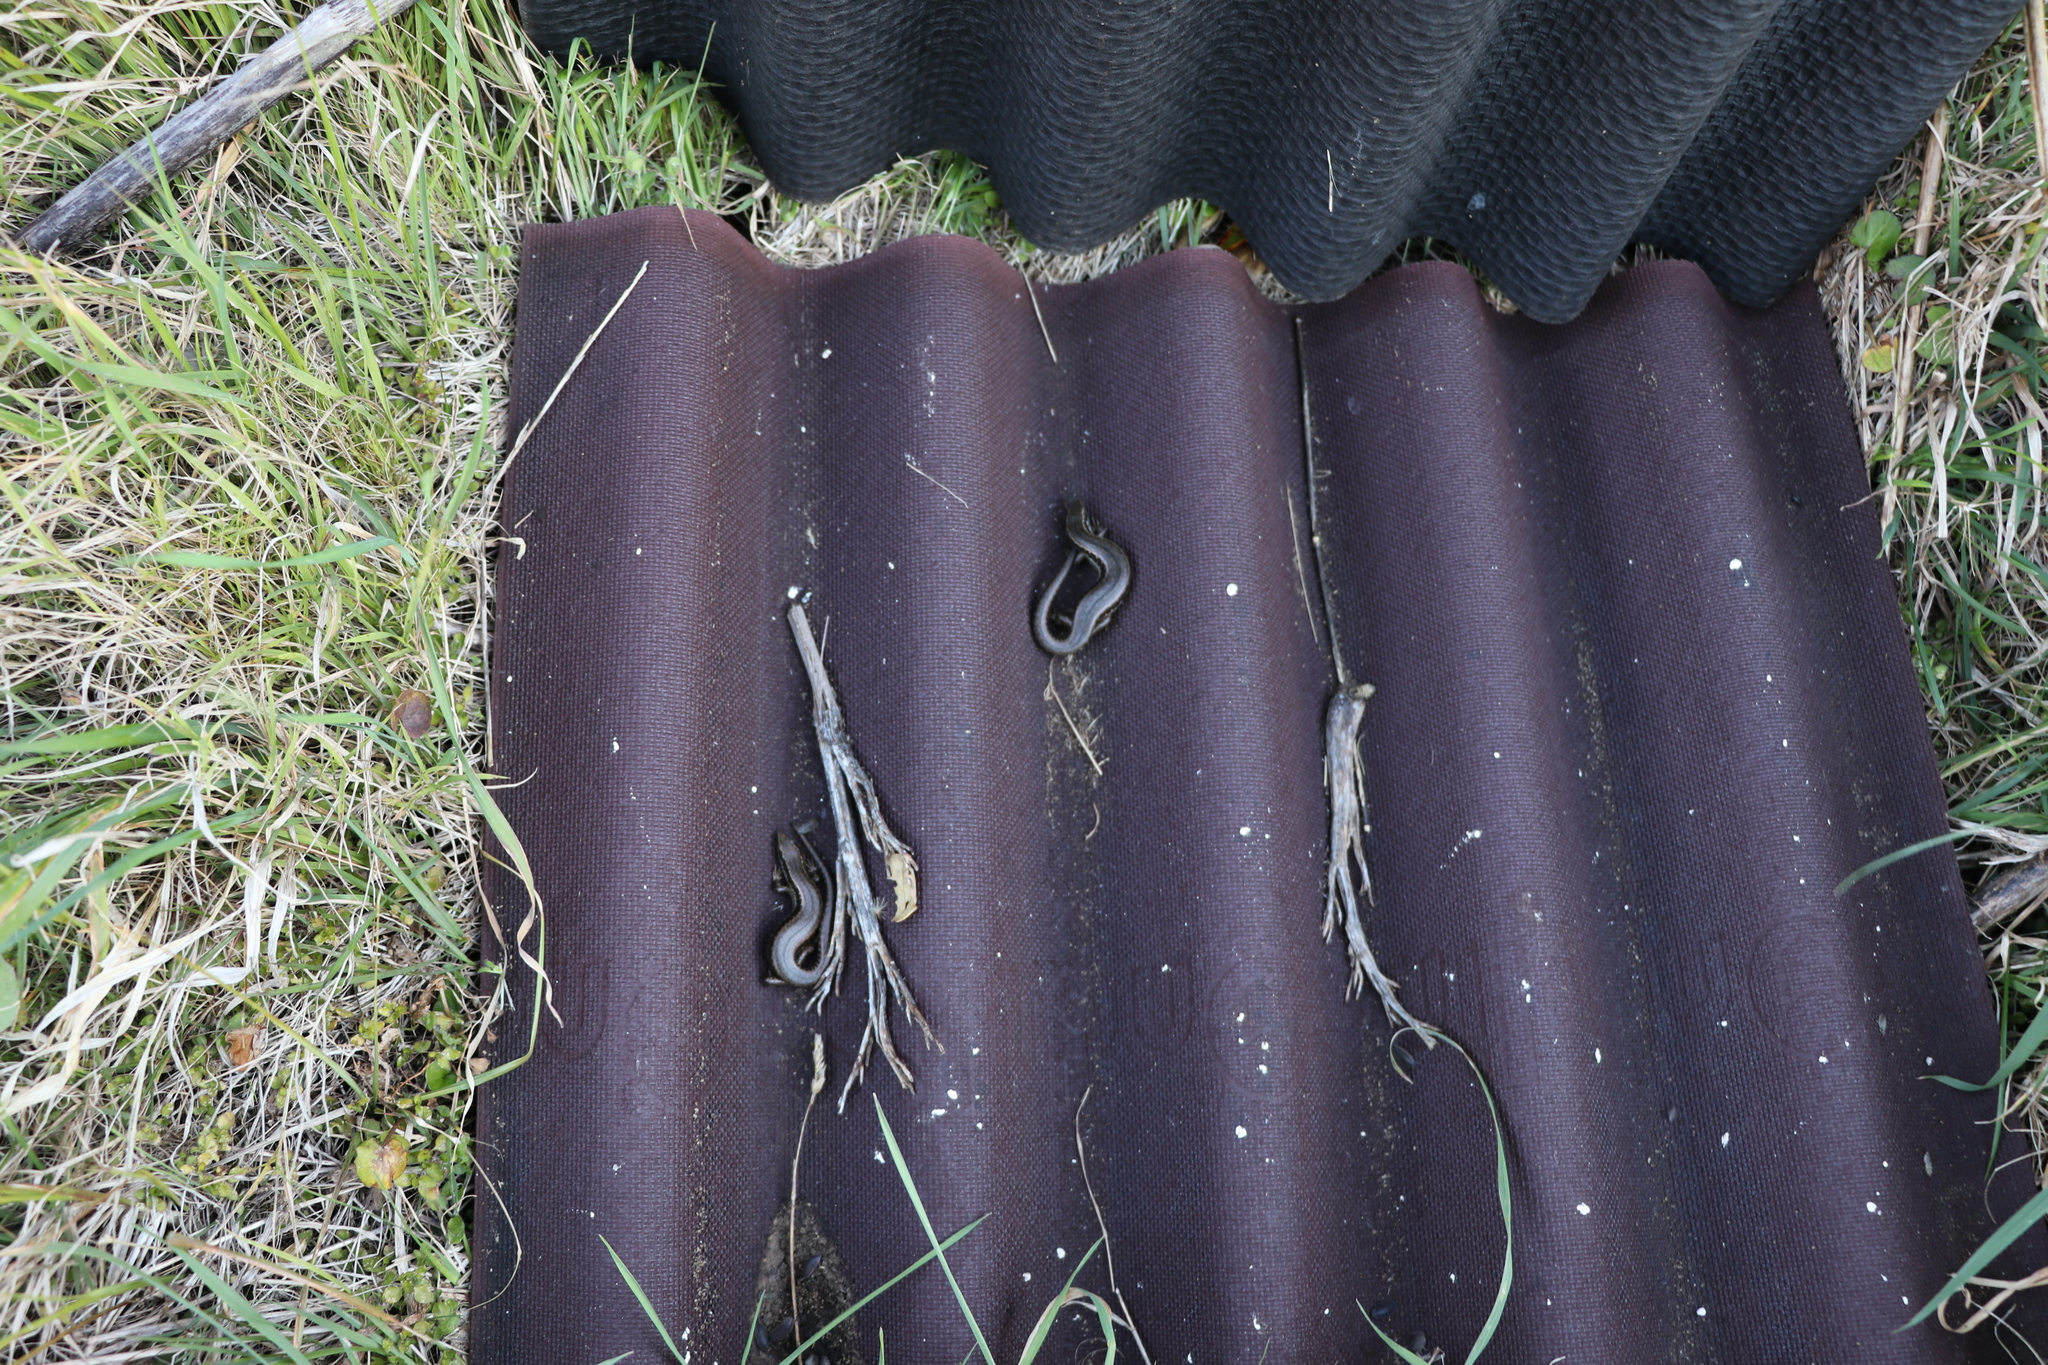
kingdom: Animalia
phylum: Chordata
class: Squamata
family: Scincidae
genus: Oligosoma
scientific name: Oligosoma polychroma
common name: Common new zealand skink
